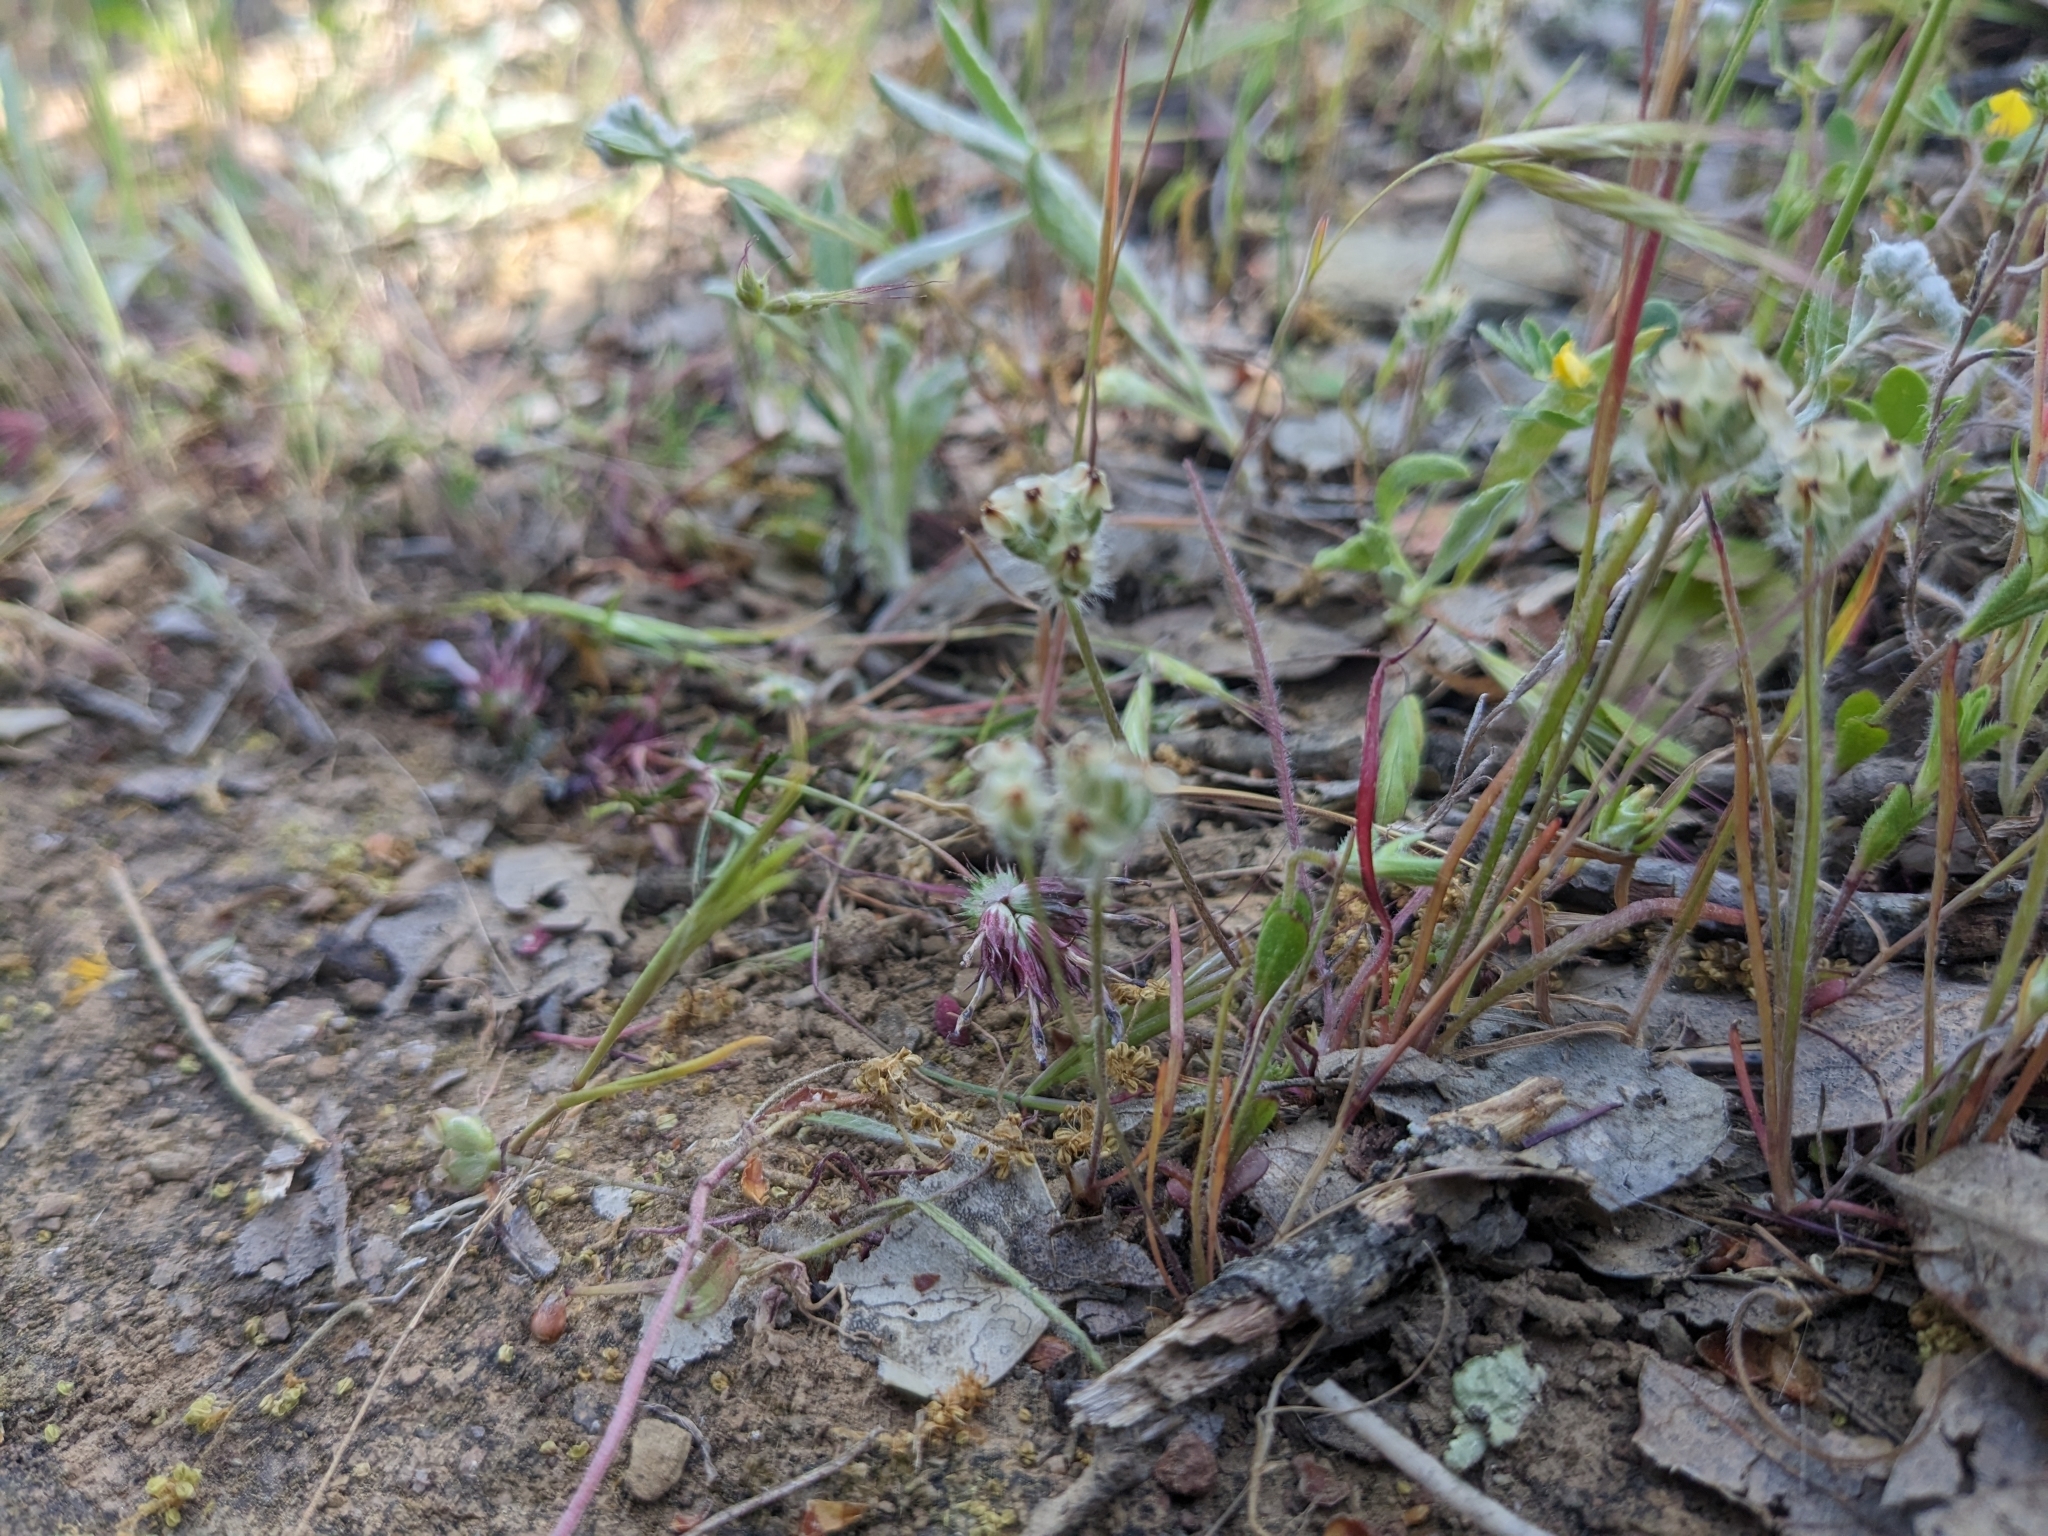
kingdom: Plantae
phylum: Tracheophyta
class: Magnoliopsida
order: Lamiales
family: Plantaginaceae
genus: Plantago
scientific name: Plantago erecta
